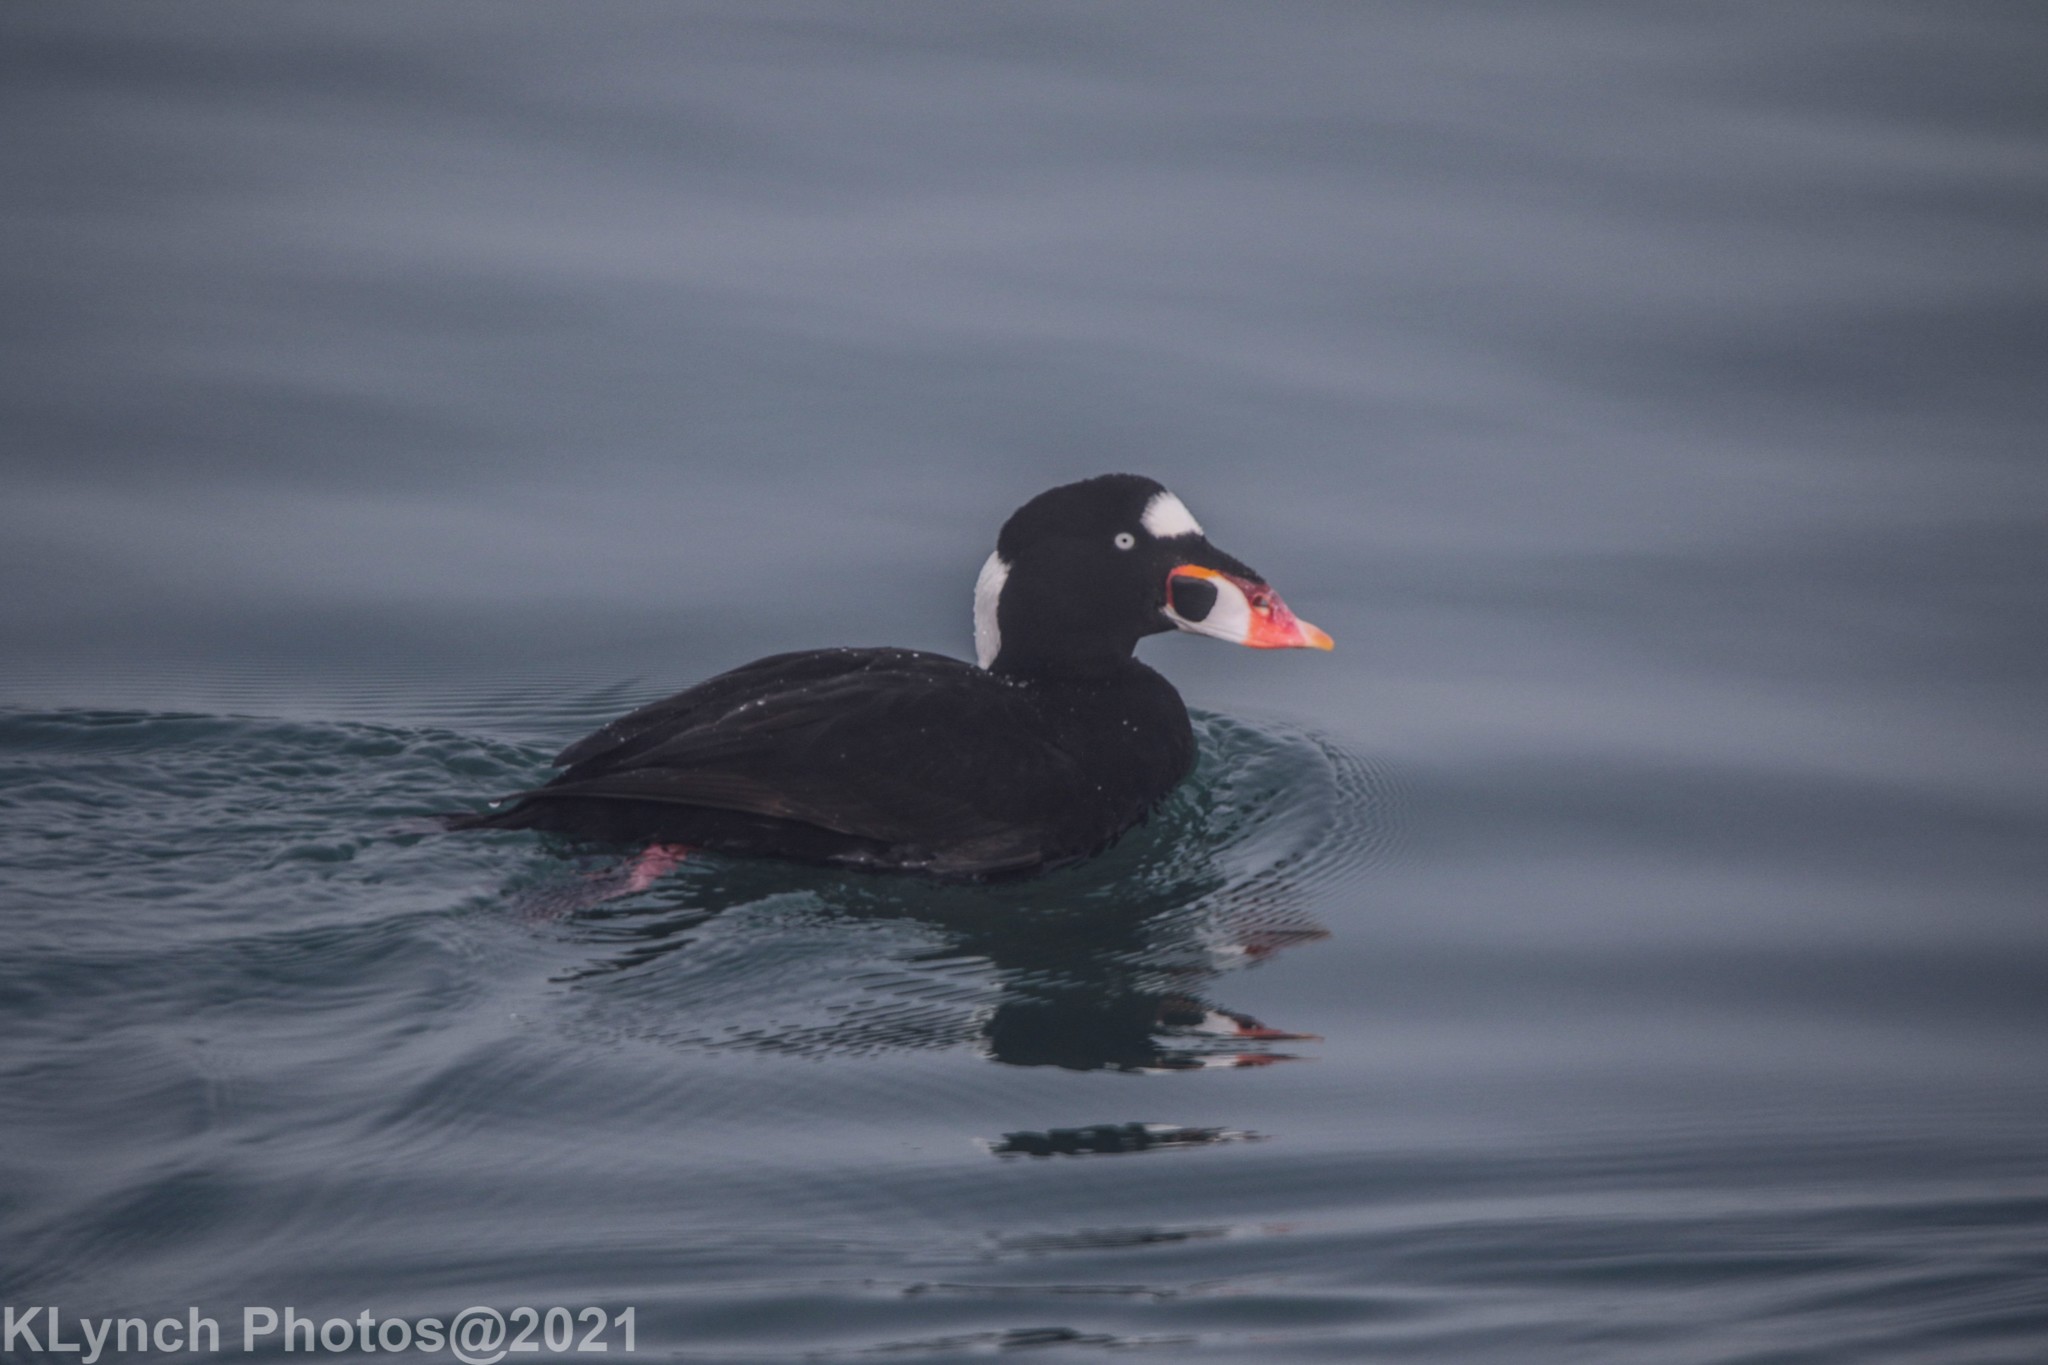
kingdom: Animalia
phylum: Chordata
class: Aves
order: Anseriformes
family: Anatidae
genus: Melanitta
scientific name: Melanitta perspicillata
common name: Surf scoter
